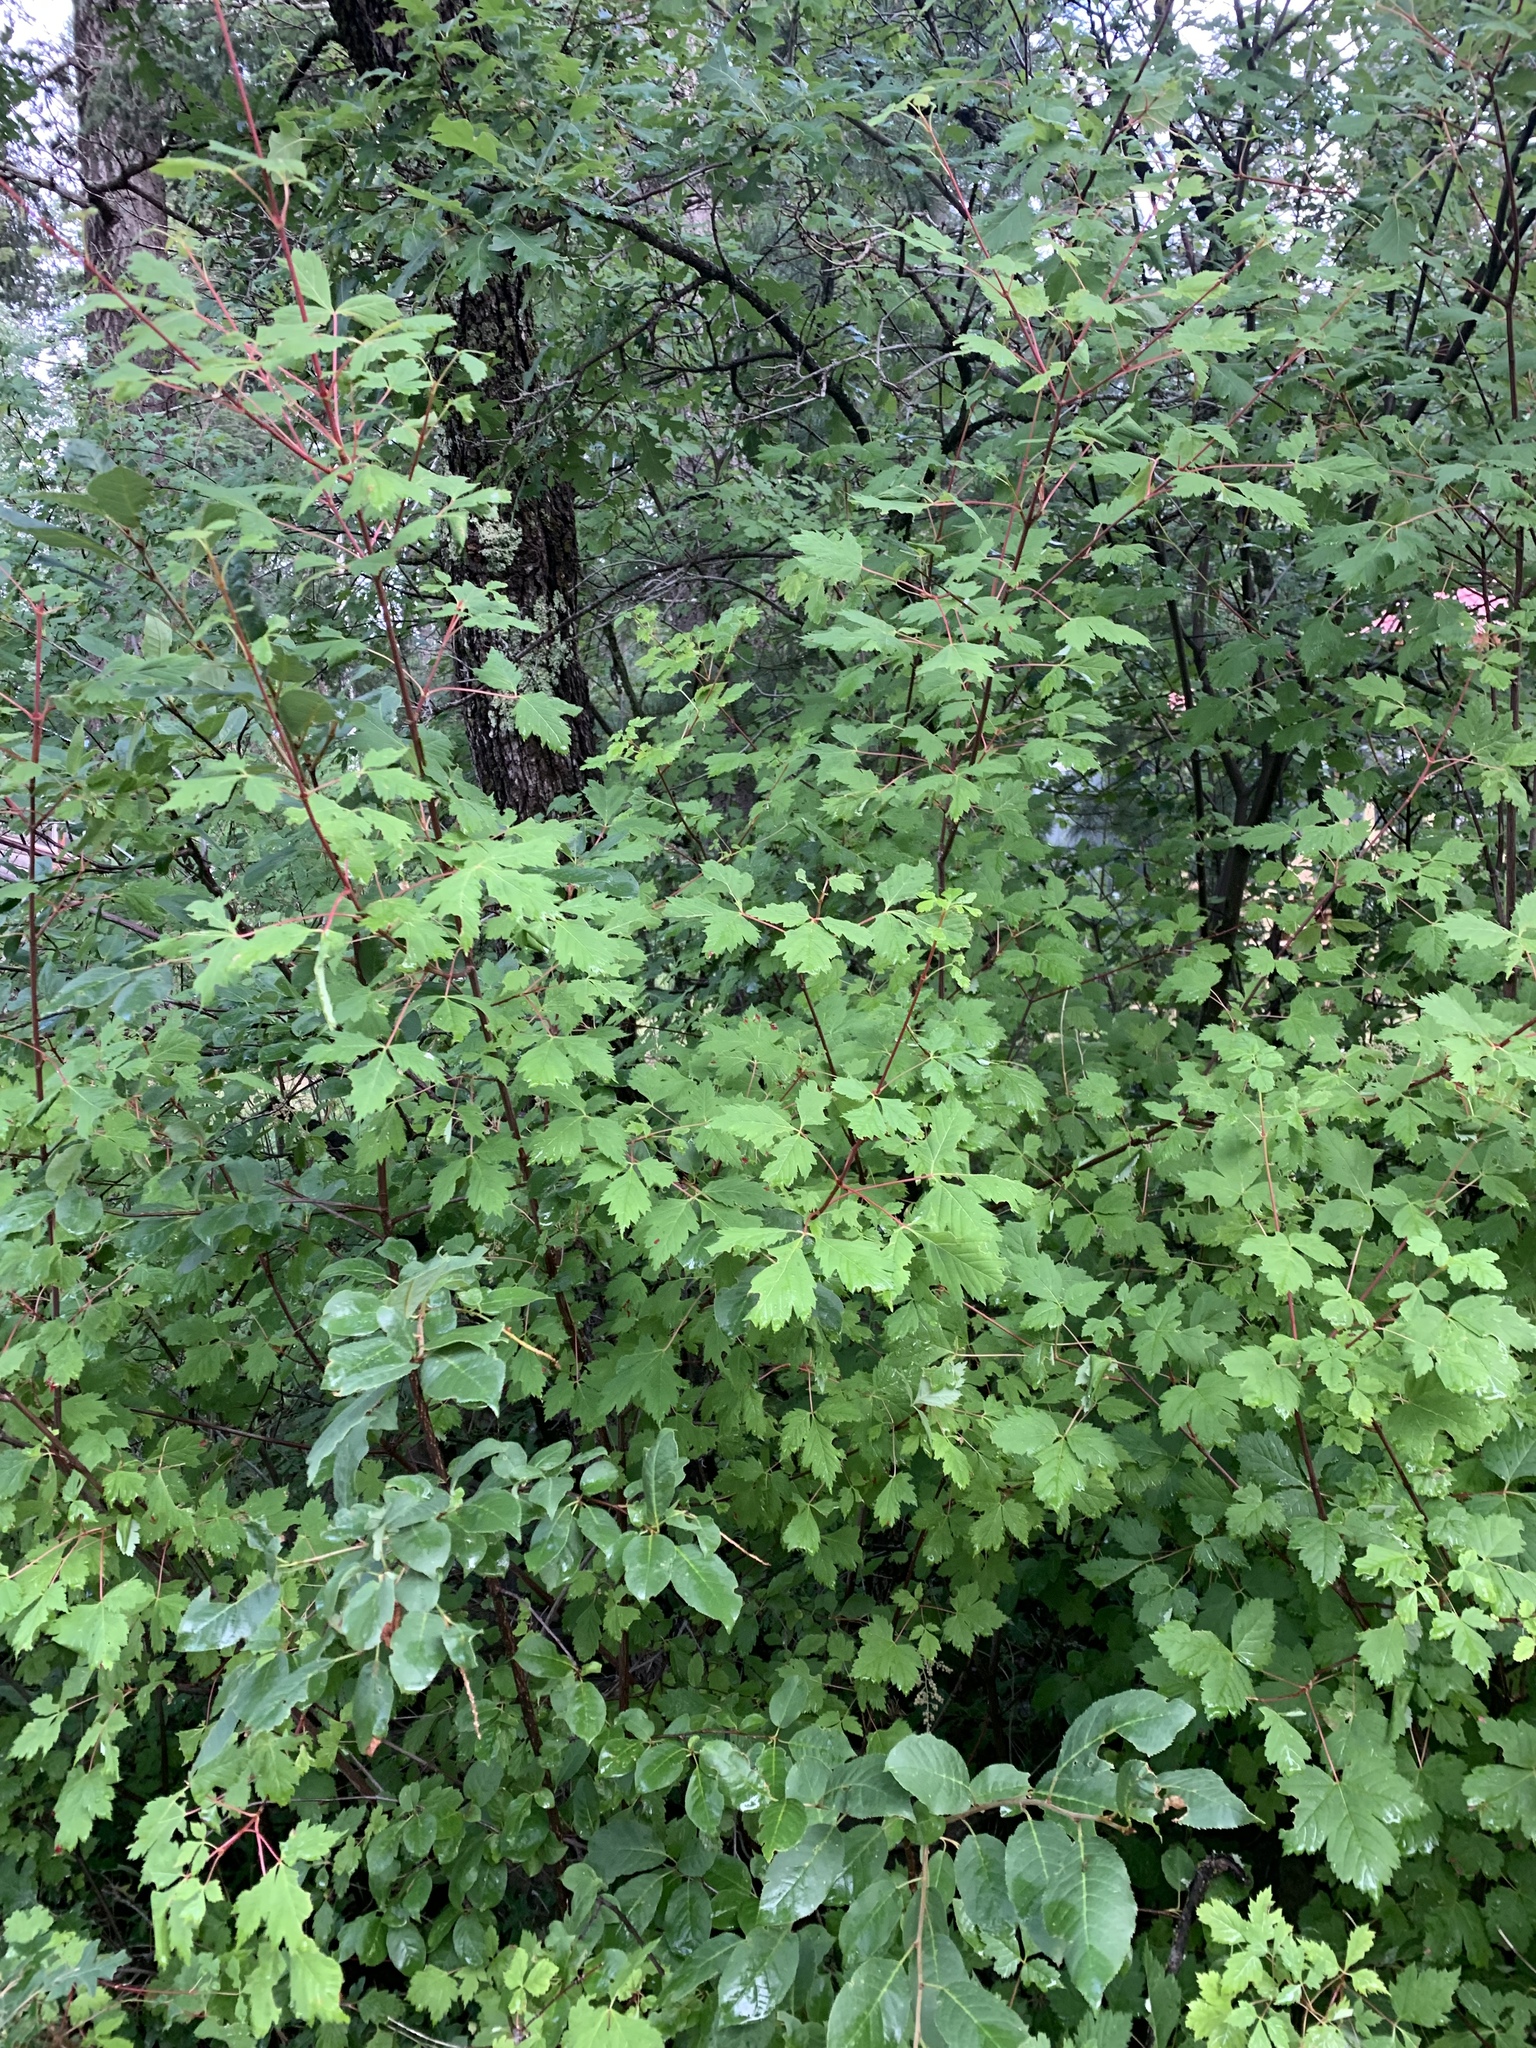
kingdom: Plantae
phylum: Tracheophyta
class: Magnoliopsida
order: Sapindales
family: Sapindaceae
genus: Acer
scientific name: Acer negundo
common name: Ashleaf maple
